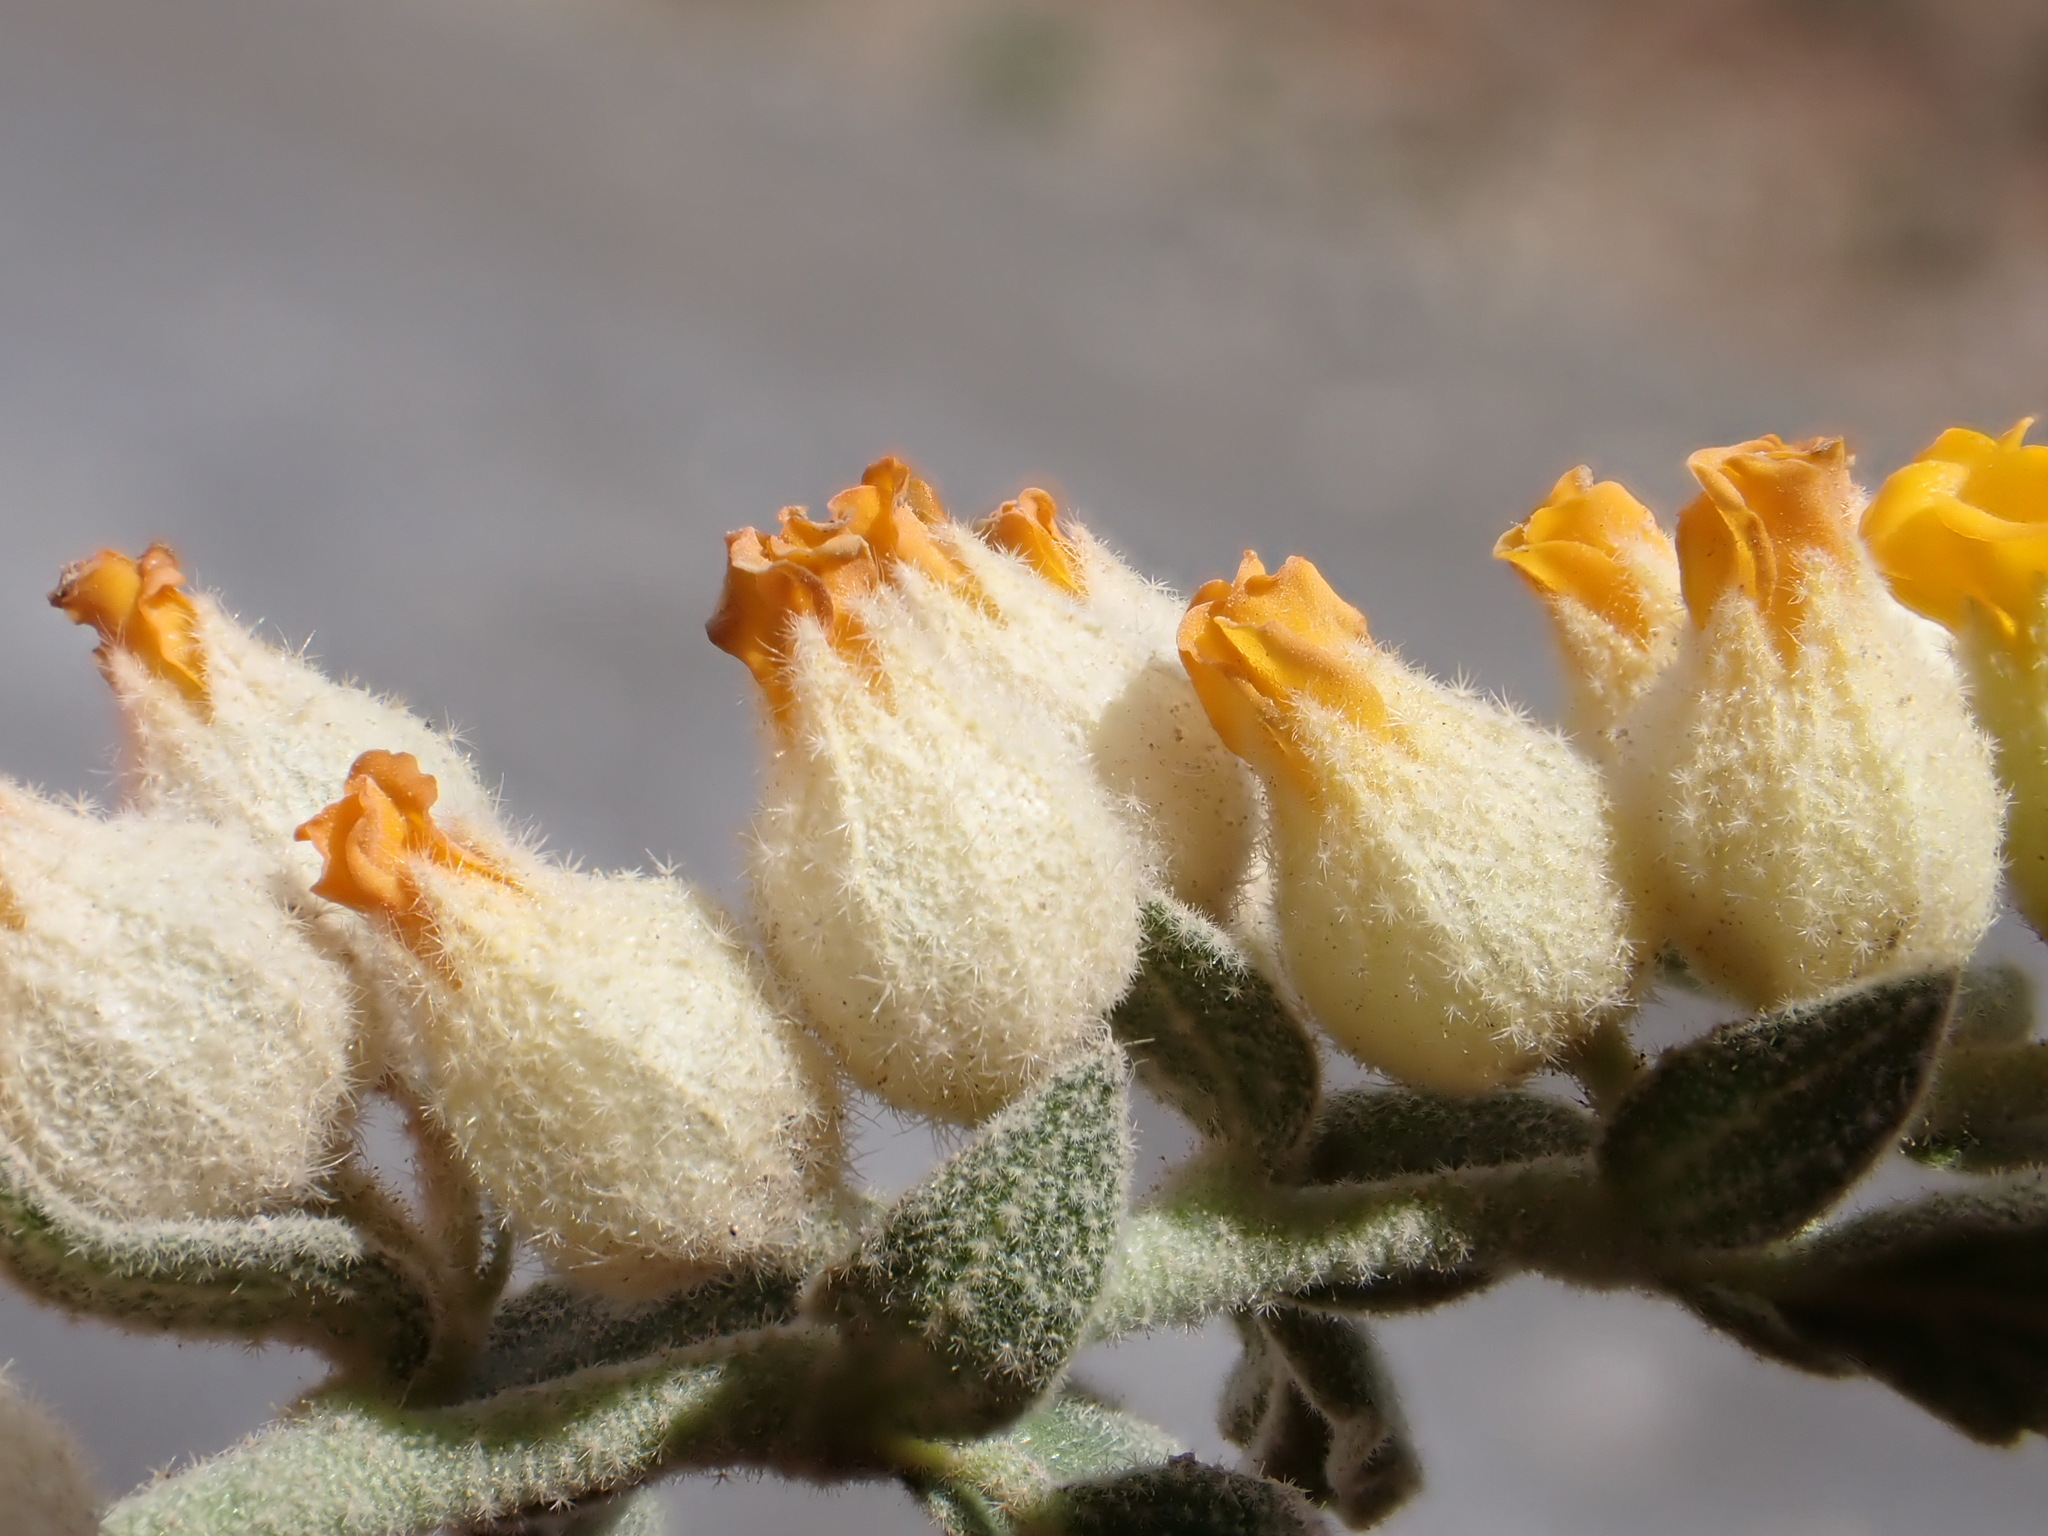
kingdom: Plantae
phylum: Tracheophyta
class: Magnoliopsida
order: Malvales
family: Malvaceae
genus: Hermannia
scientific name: Hermannia johanssenii
